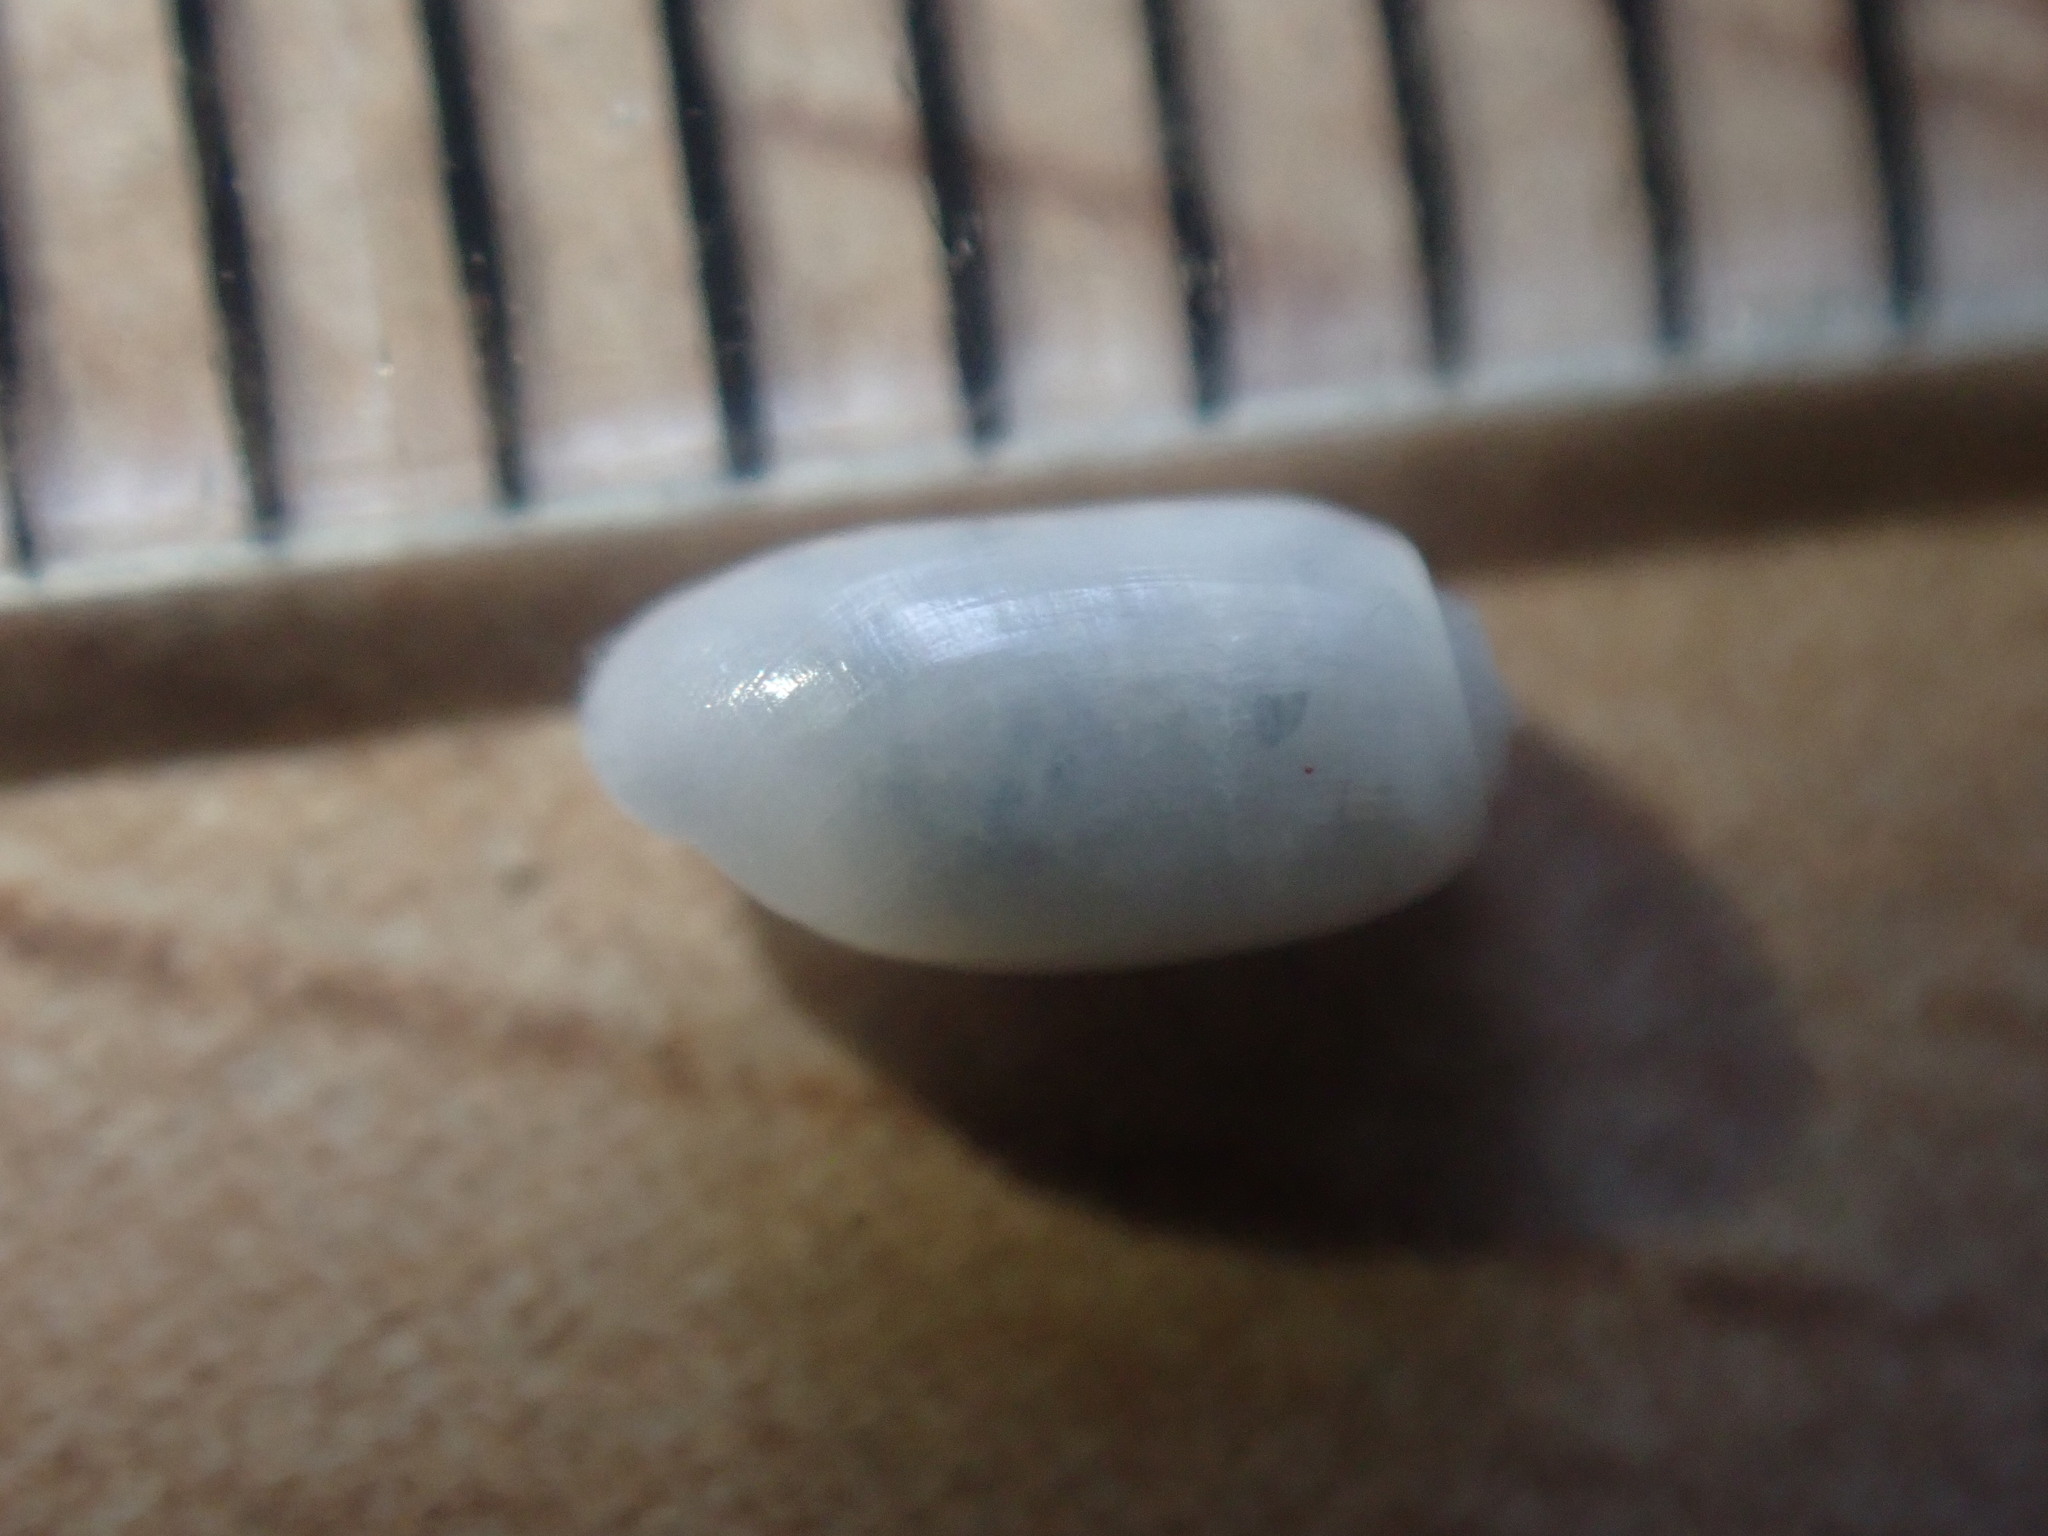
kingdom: Animalia
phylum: Mollusca
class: Gastropoda
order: Cephalaspidea
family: Retusidae
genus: Retusa
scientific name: Retusa oruaensis
